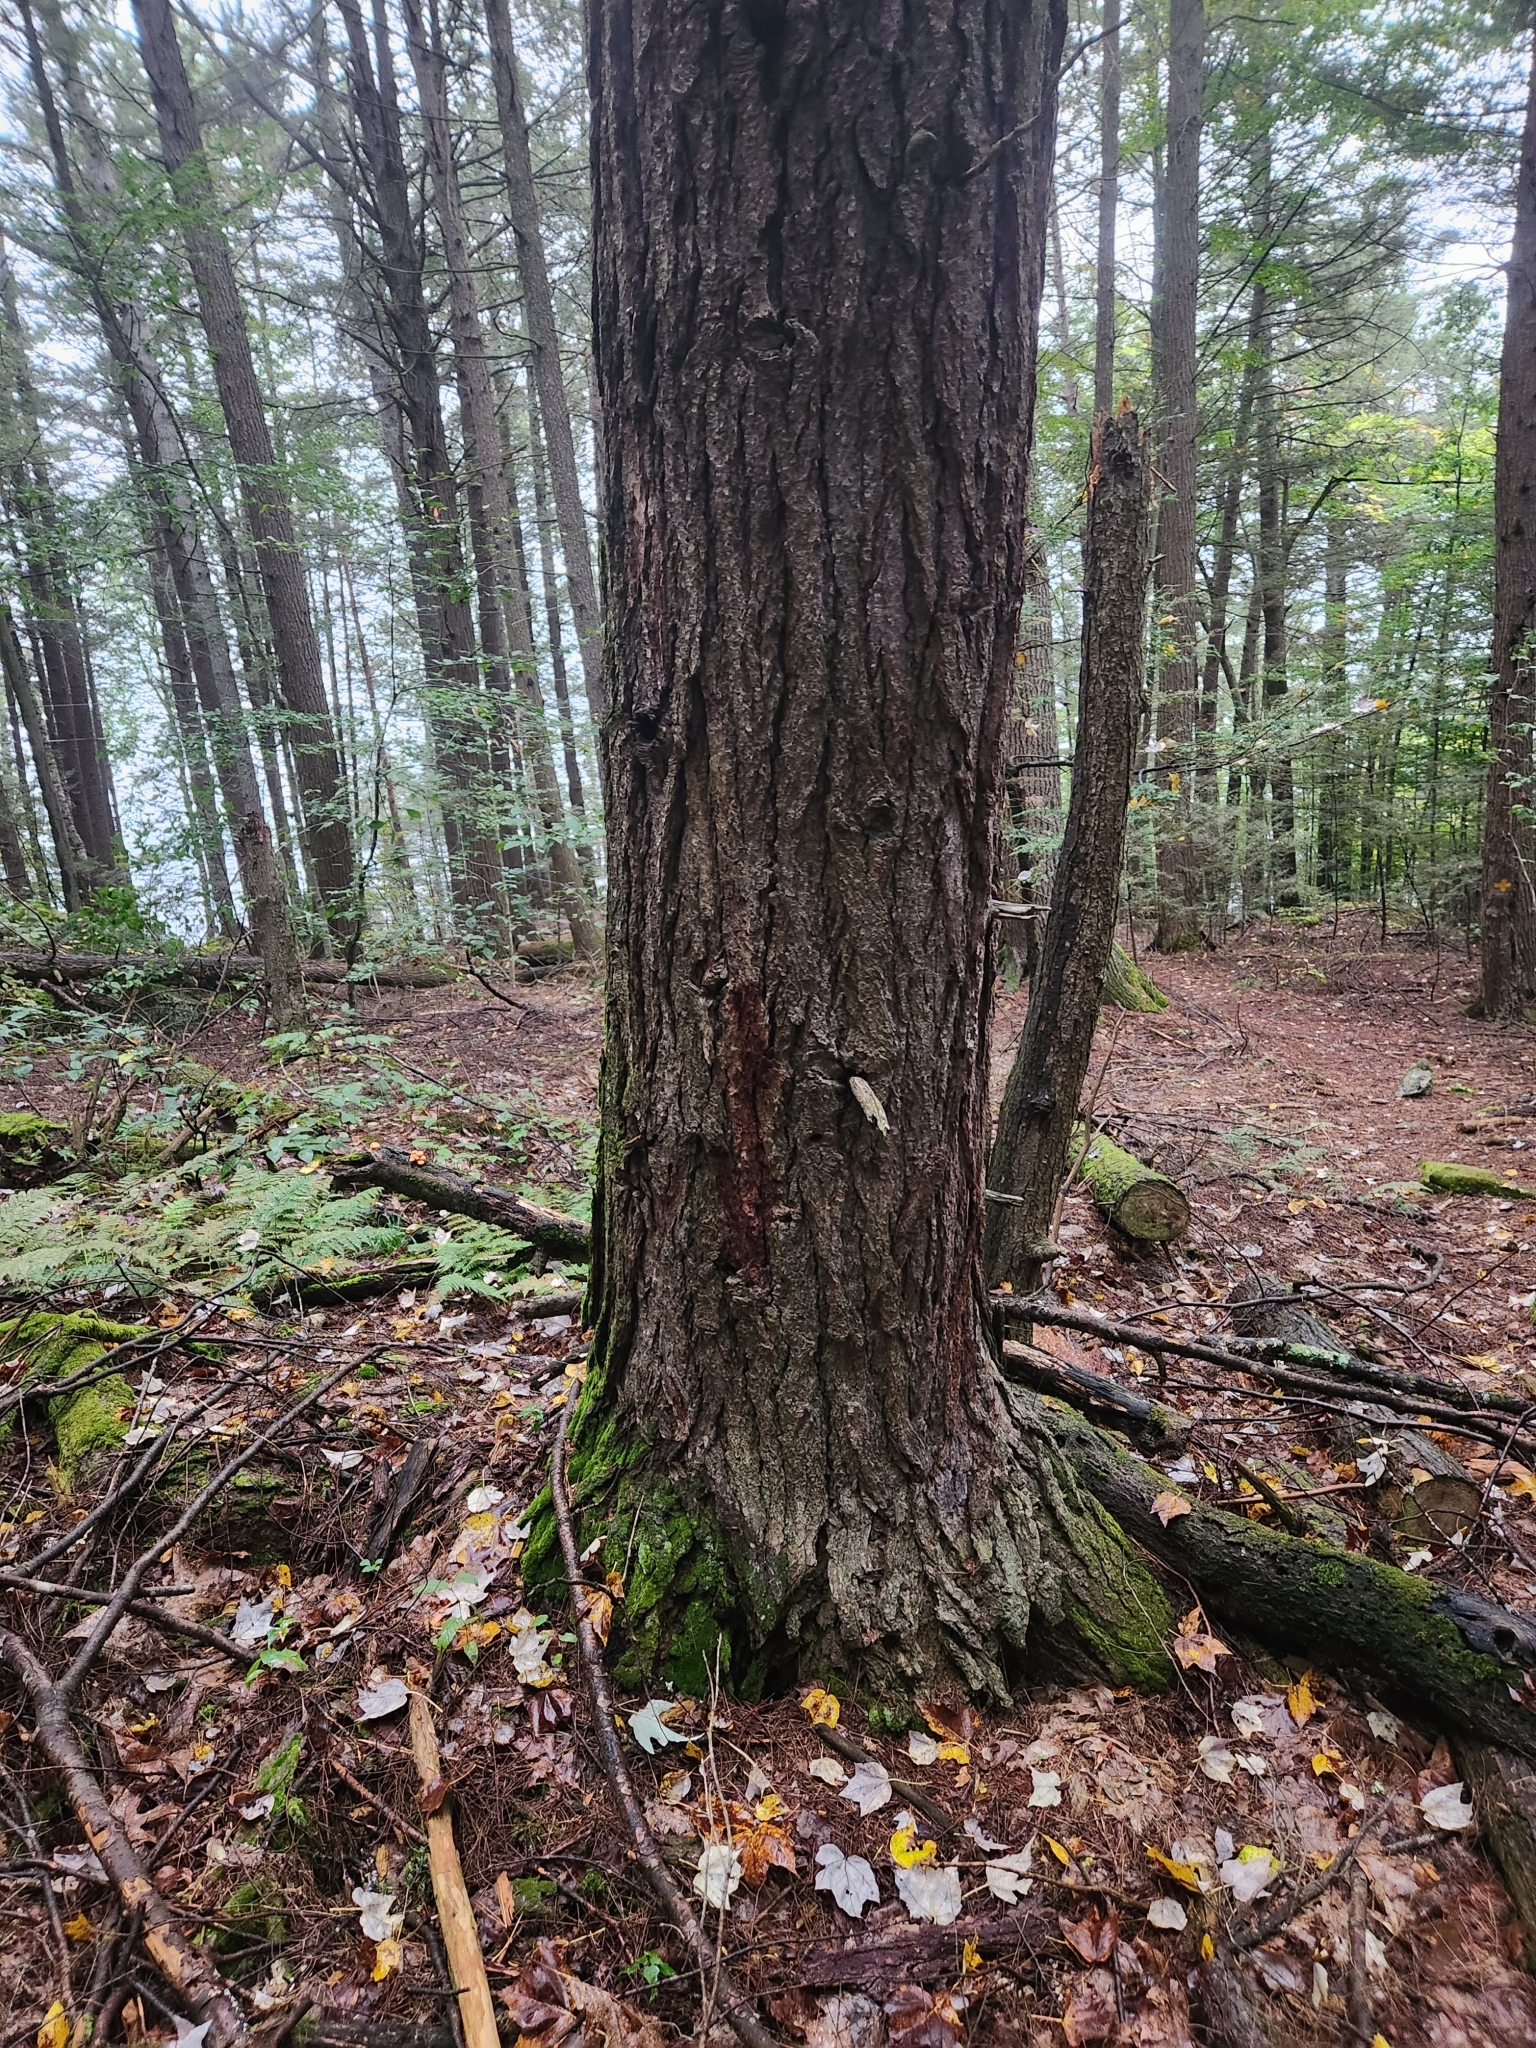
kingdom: Plantae
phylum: Tracheophyta
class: Pinopsida
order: Pinales
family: Pinaceae
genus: Tsuga
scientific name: Tsuga canadensis
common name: Eastern hemlock
